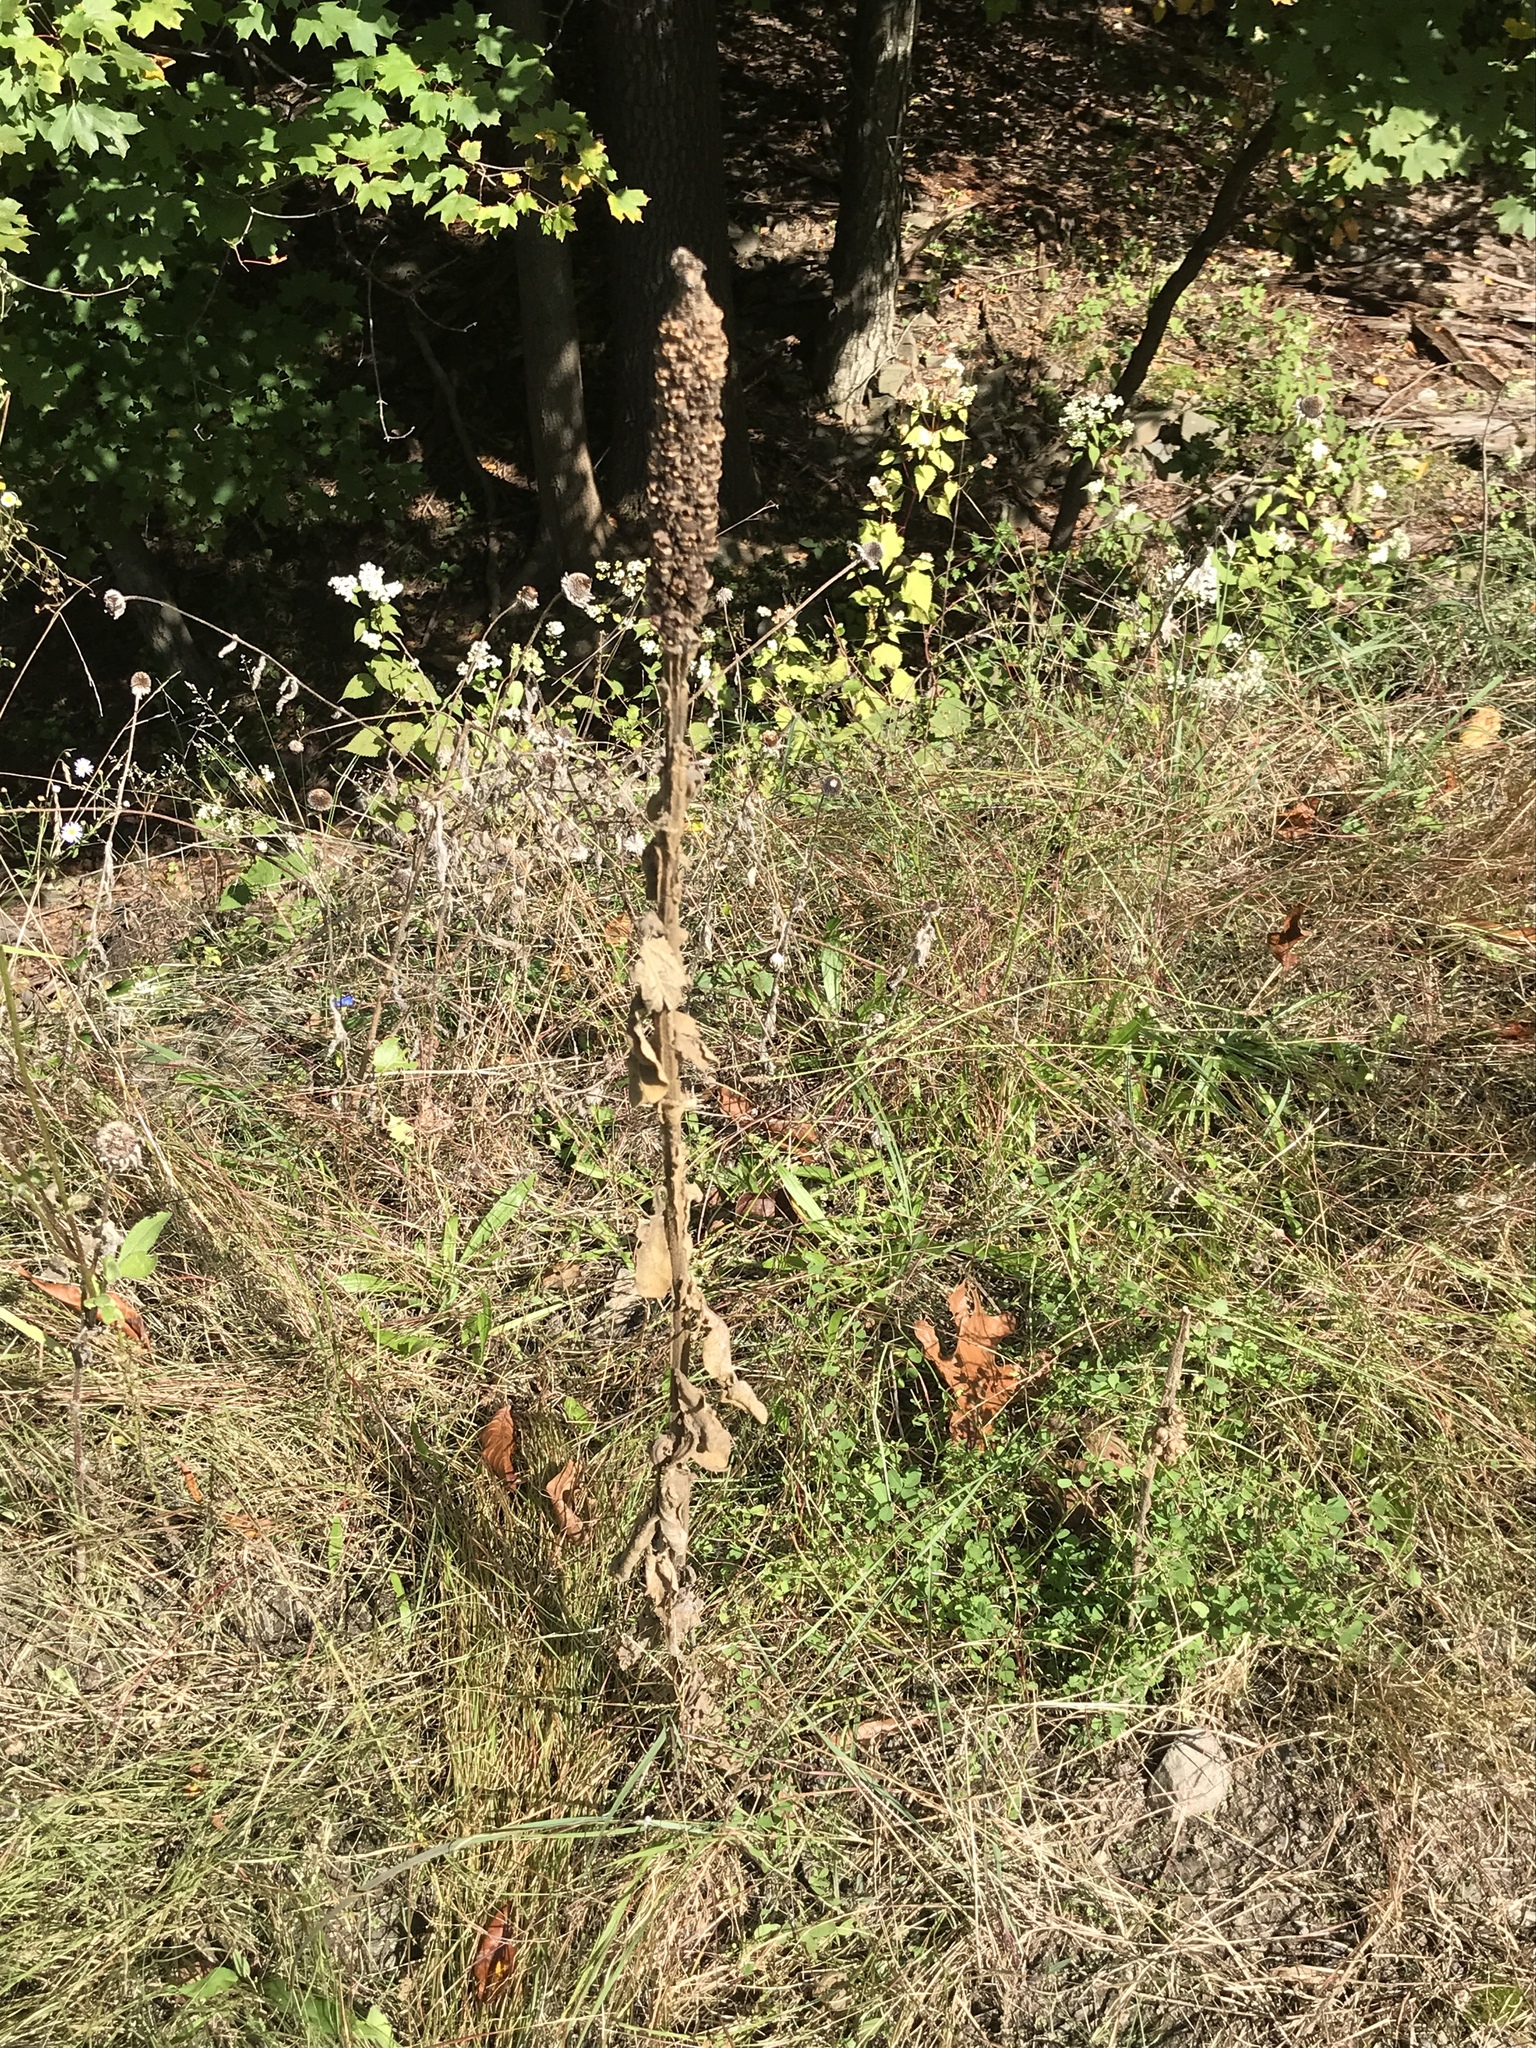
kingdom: Plantae
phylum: Tracheophyta
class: Magnoliopsida
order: Lamiales
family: Scrophulariaceae
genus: Verbascum
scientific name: Verbascum thapsus
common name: Common mullein
